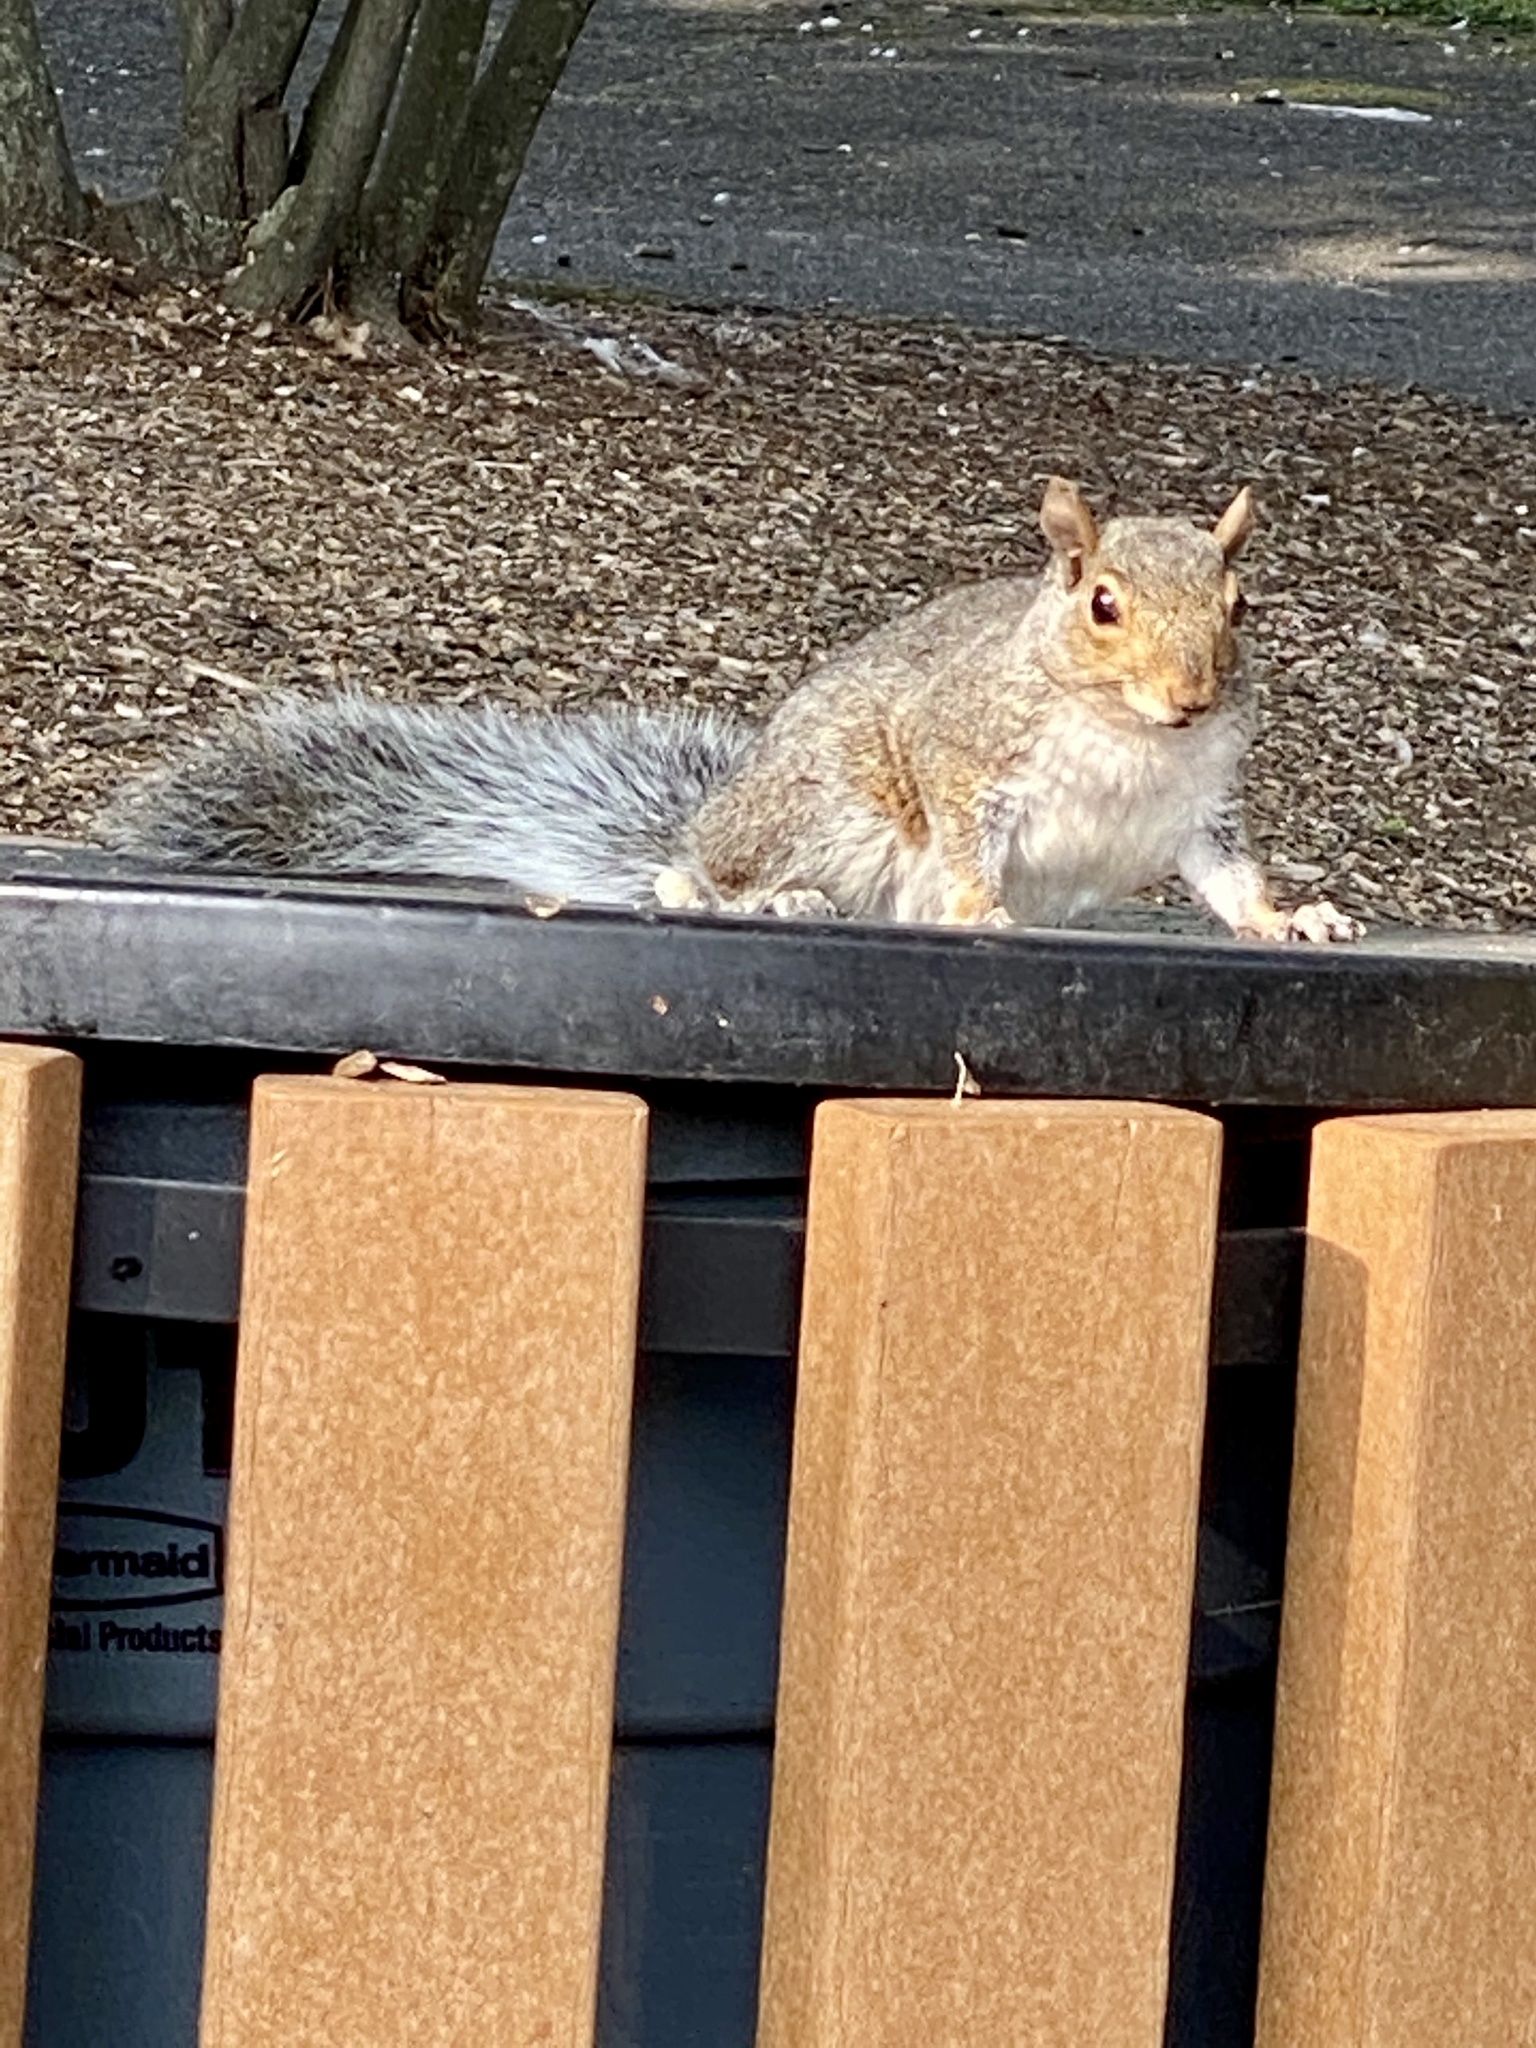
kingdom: Animalia
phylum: Chordata
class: Mammalia
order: Rodentia
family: Sciuridae
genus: Sciurus
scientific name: Sciurus carolinensis
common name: Eastern gray squirrel
